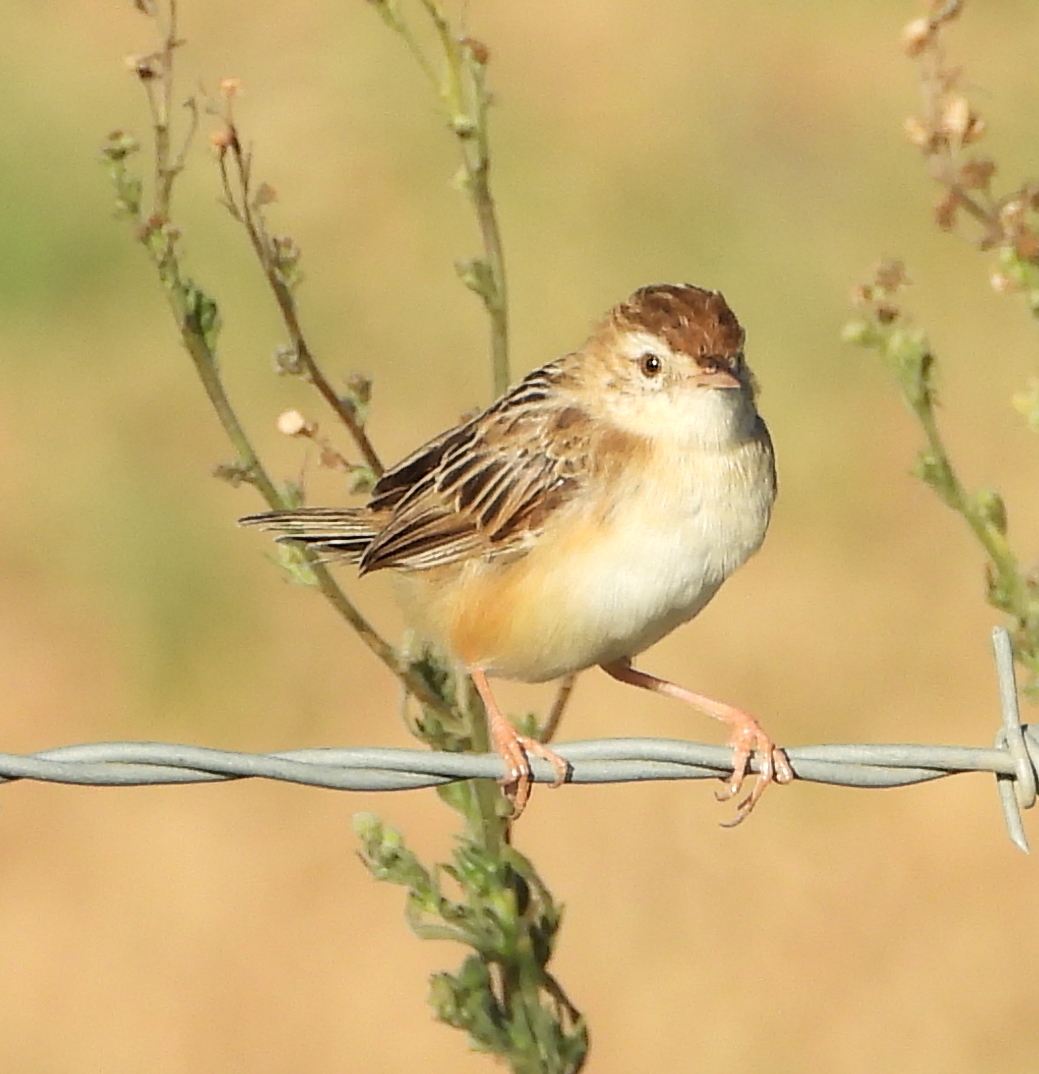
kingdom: Animalia
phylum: Chordata
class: Aves
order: Passeriformes
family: Cisticolidae
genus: Cisticola
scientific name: Cisticola juncidis
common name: Zitting cisticola
